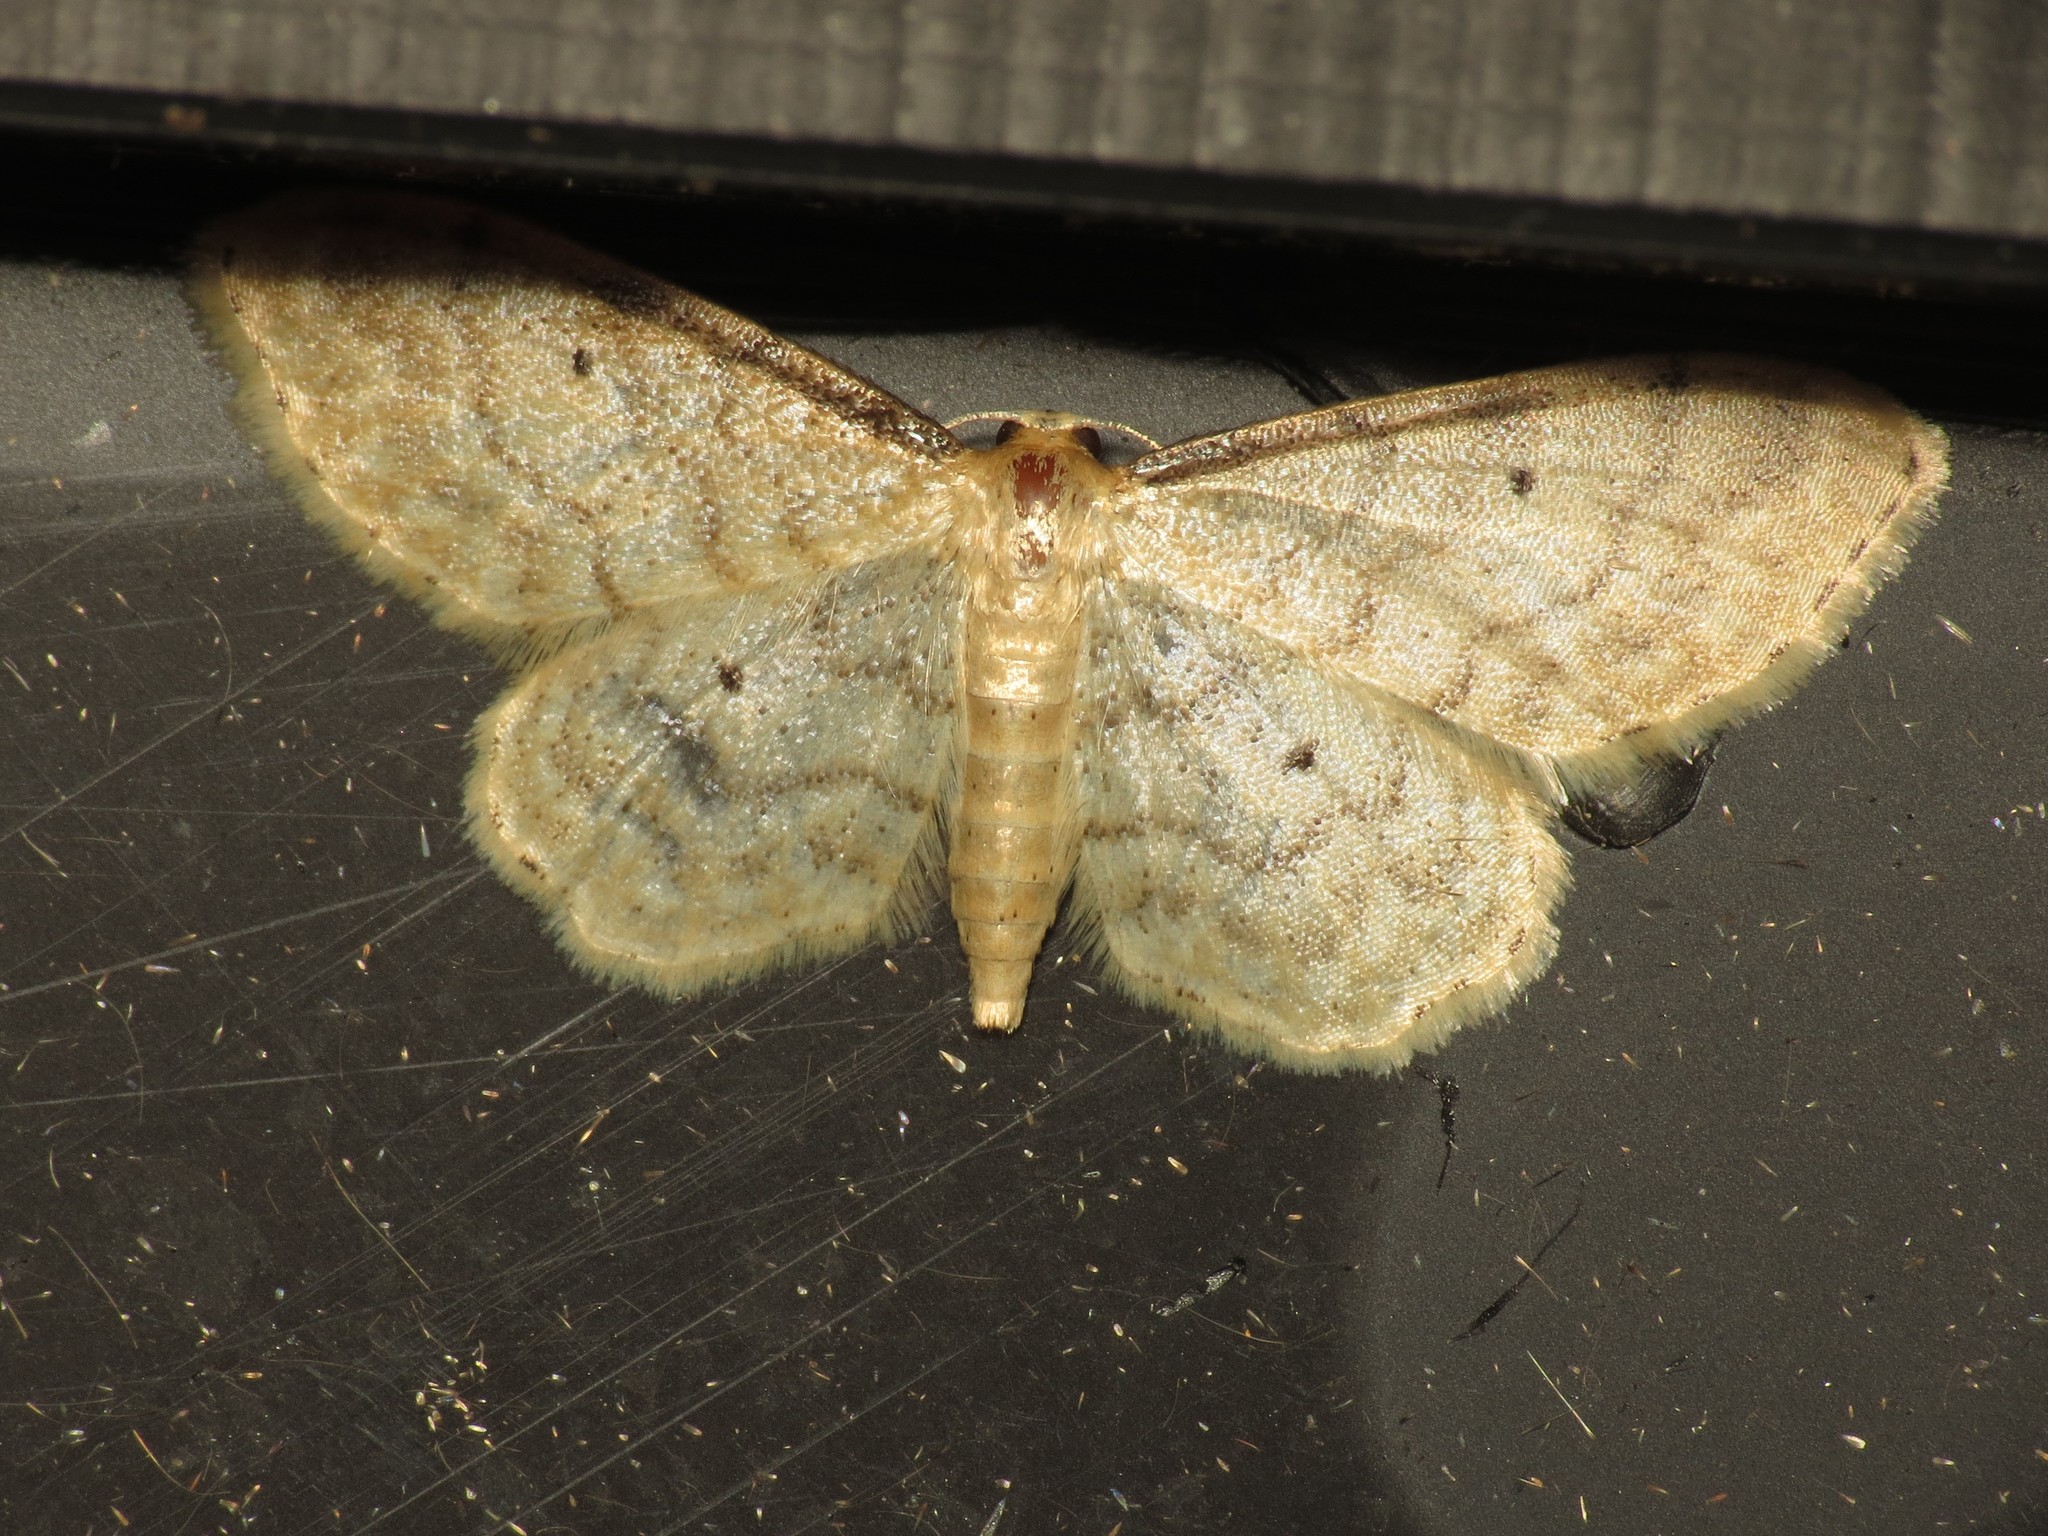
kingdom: Animalia
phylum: Arthropoda
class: Insecta
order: Lepidoptera
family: Geometridae
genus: Idaea
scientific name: Idaea fuscovenosa
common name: Dwarf cream wave
